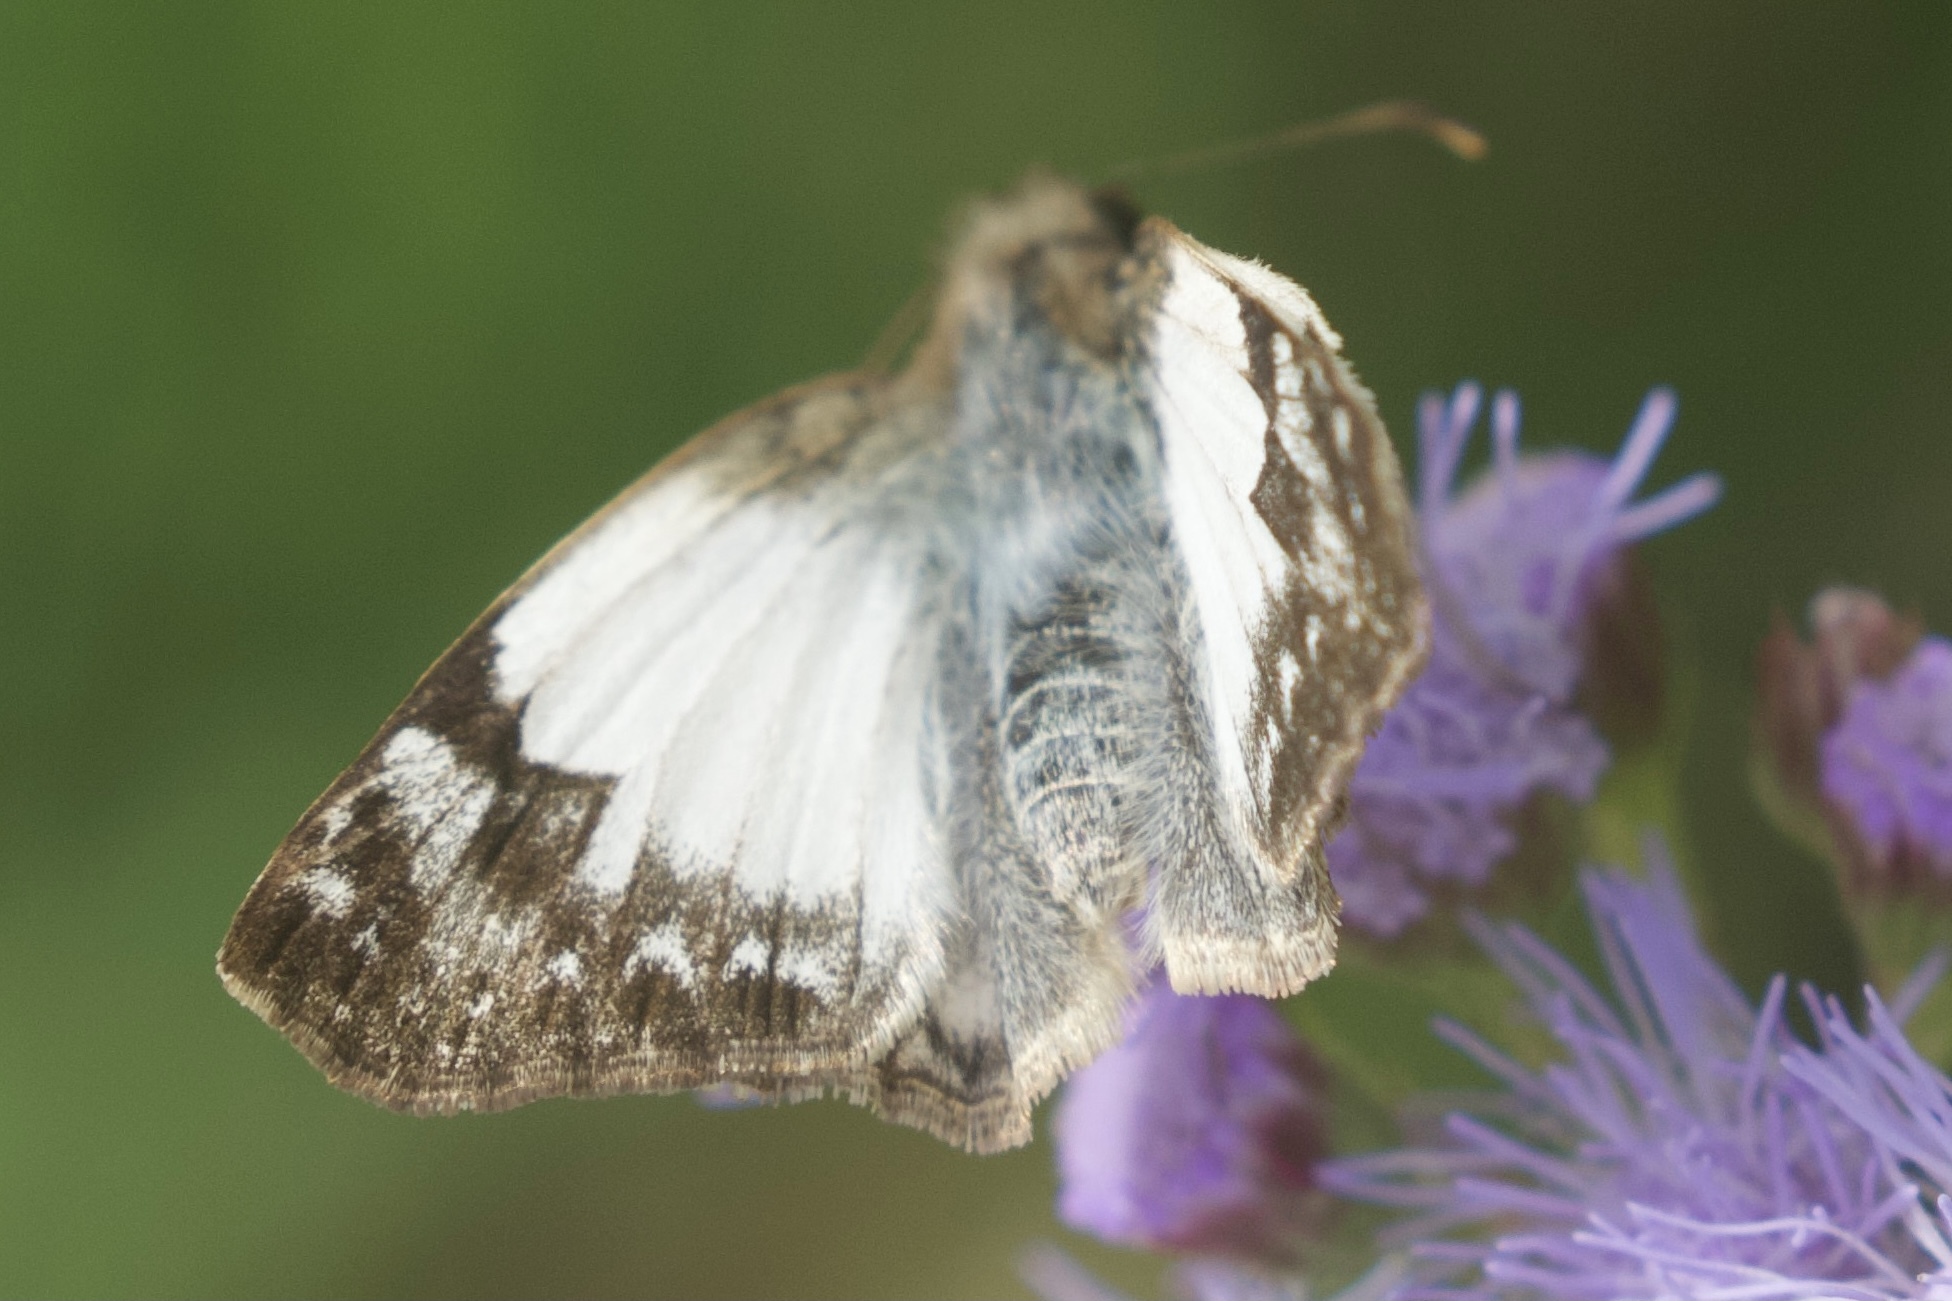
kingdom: Animalia
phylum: Arthropoda
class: Insecta
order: Lepidoptera
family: Hesperiidae
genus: Heliopetes
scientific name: Heliopetes laviana
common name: Laviana white-skipper
